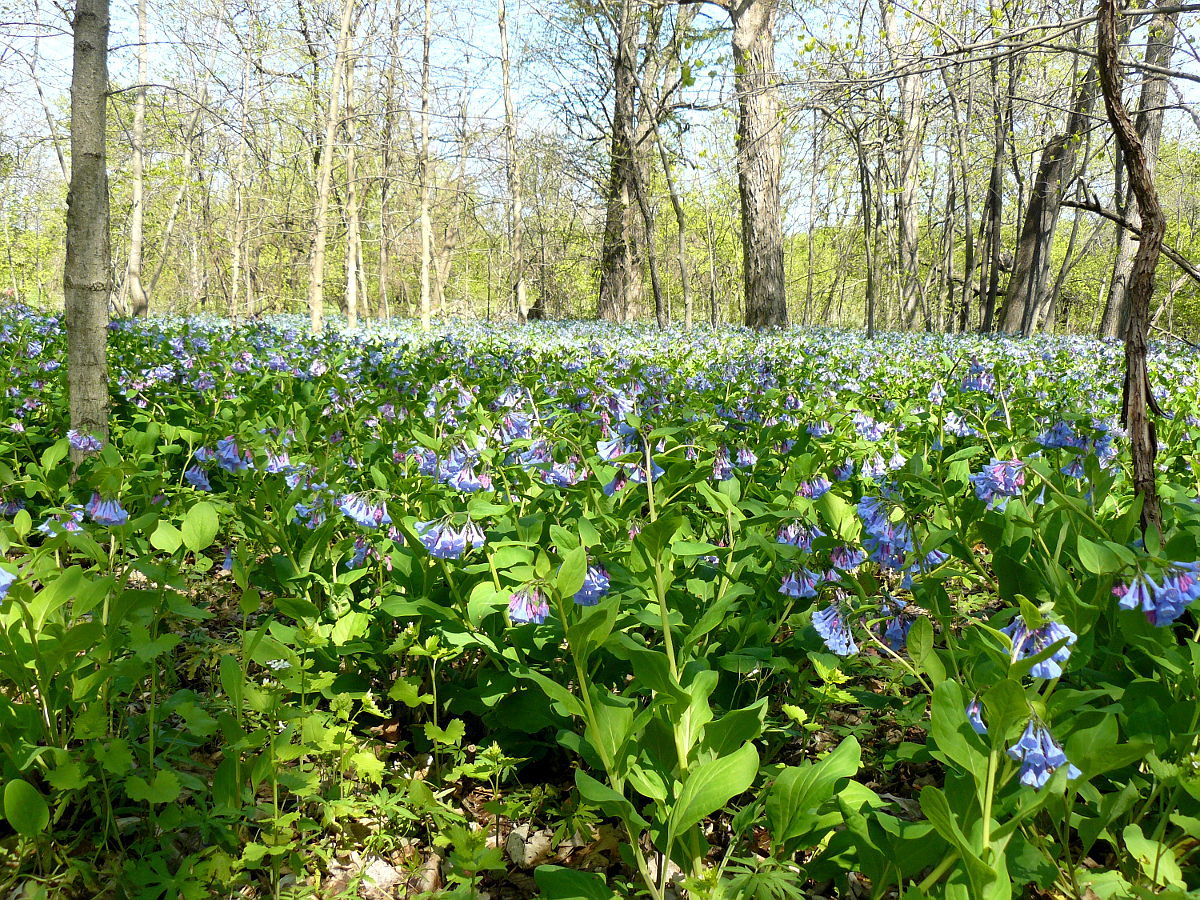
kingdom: Plantae
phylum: Tracheophyta
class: Magnoliopsida
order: Boraginales
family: Boraginaceae
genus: Mertensia
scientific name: Mertensia virginica
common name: Virginia bluebells
